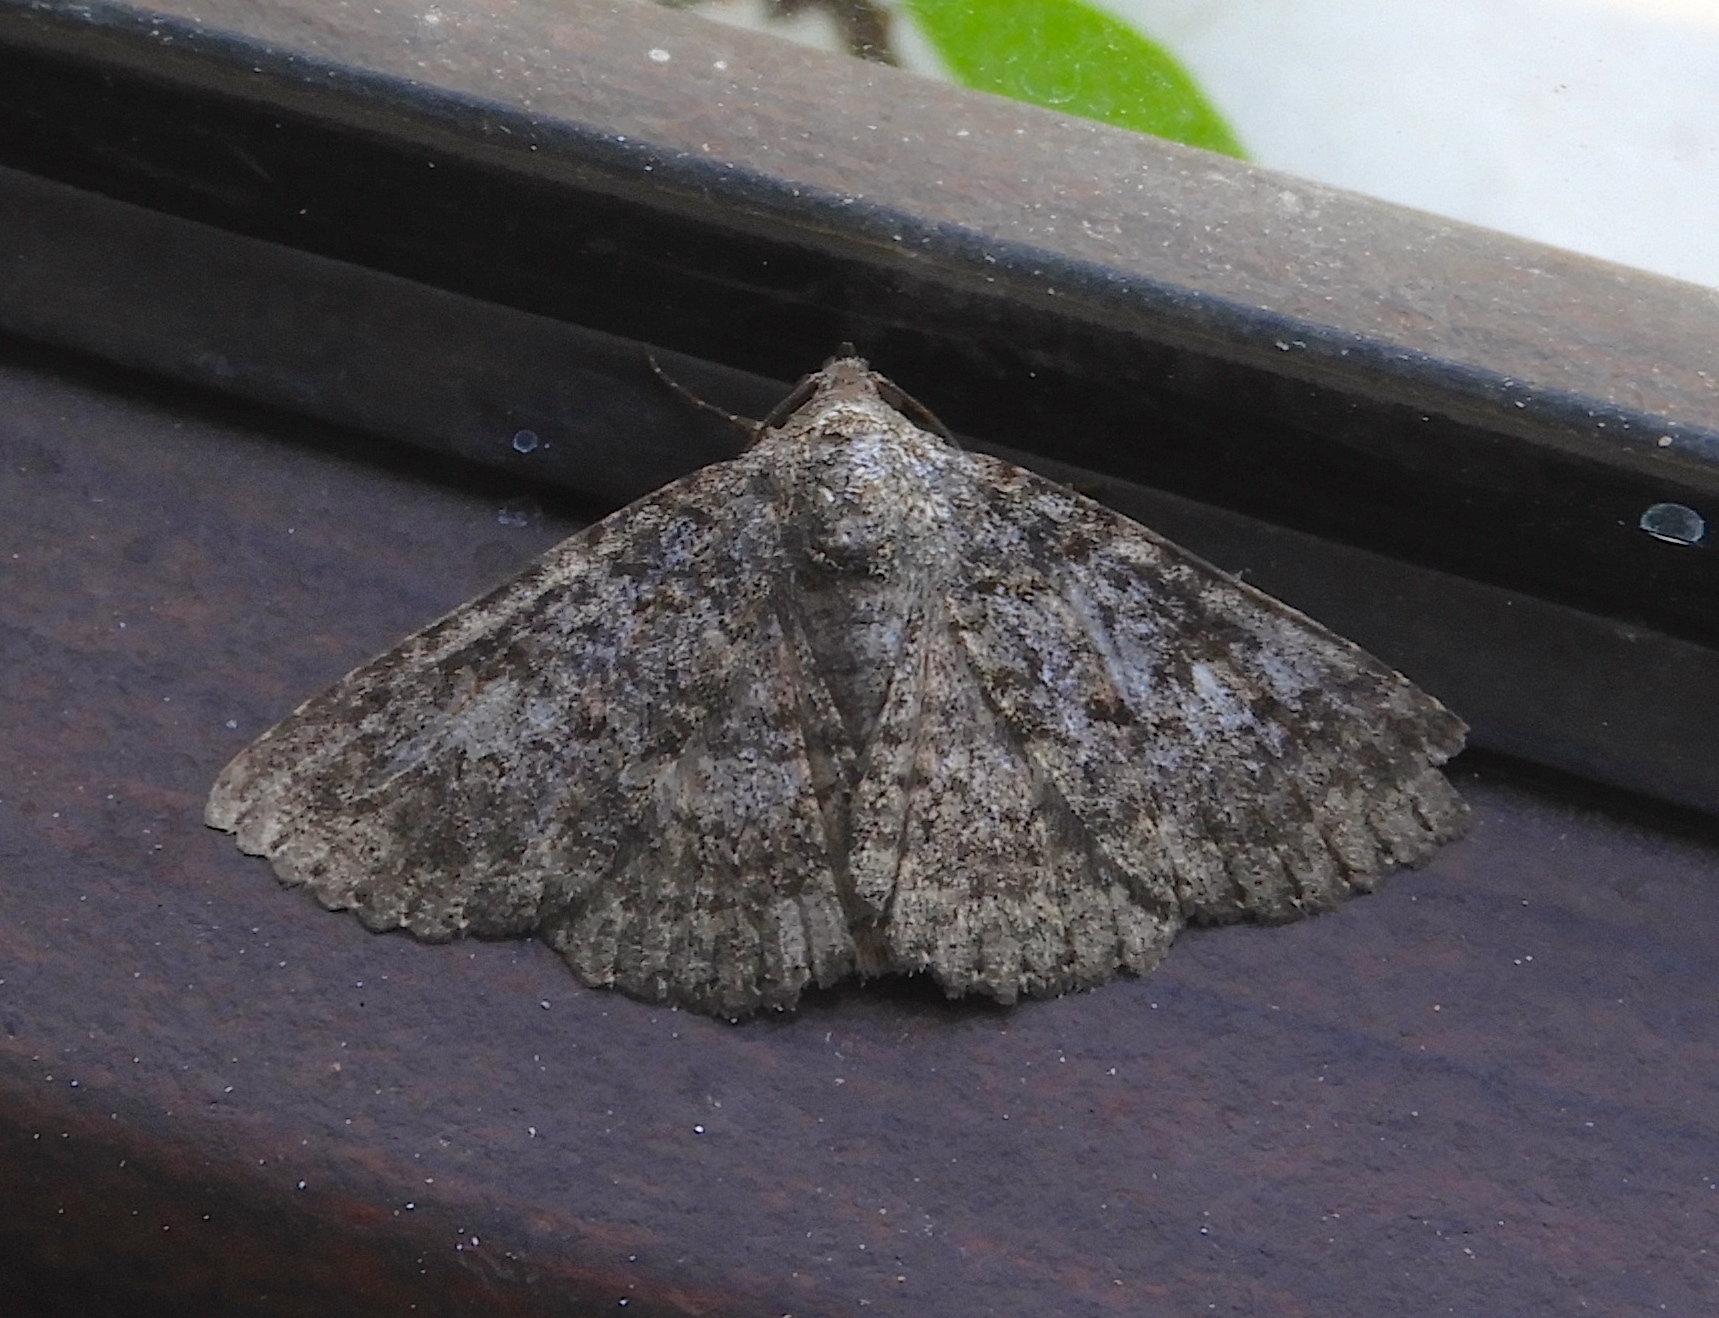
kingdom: Animalia
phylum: Arthropoda
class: Insecta
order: Lepidoptera
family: Erebidae
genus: Matigramma
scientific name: Matigramma
